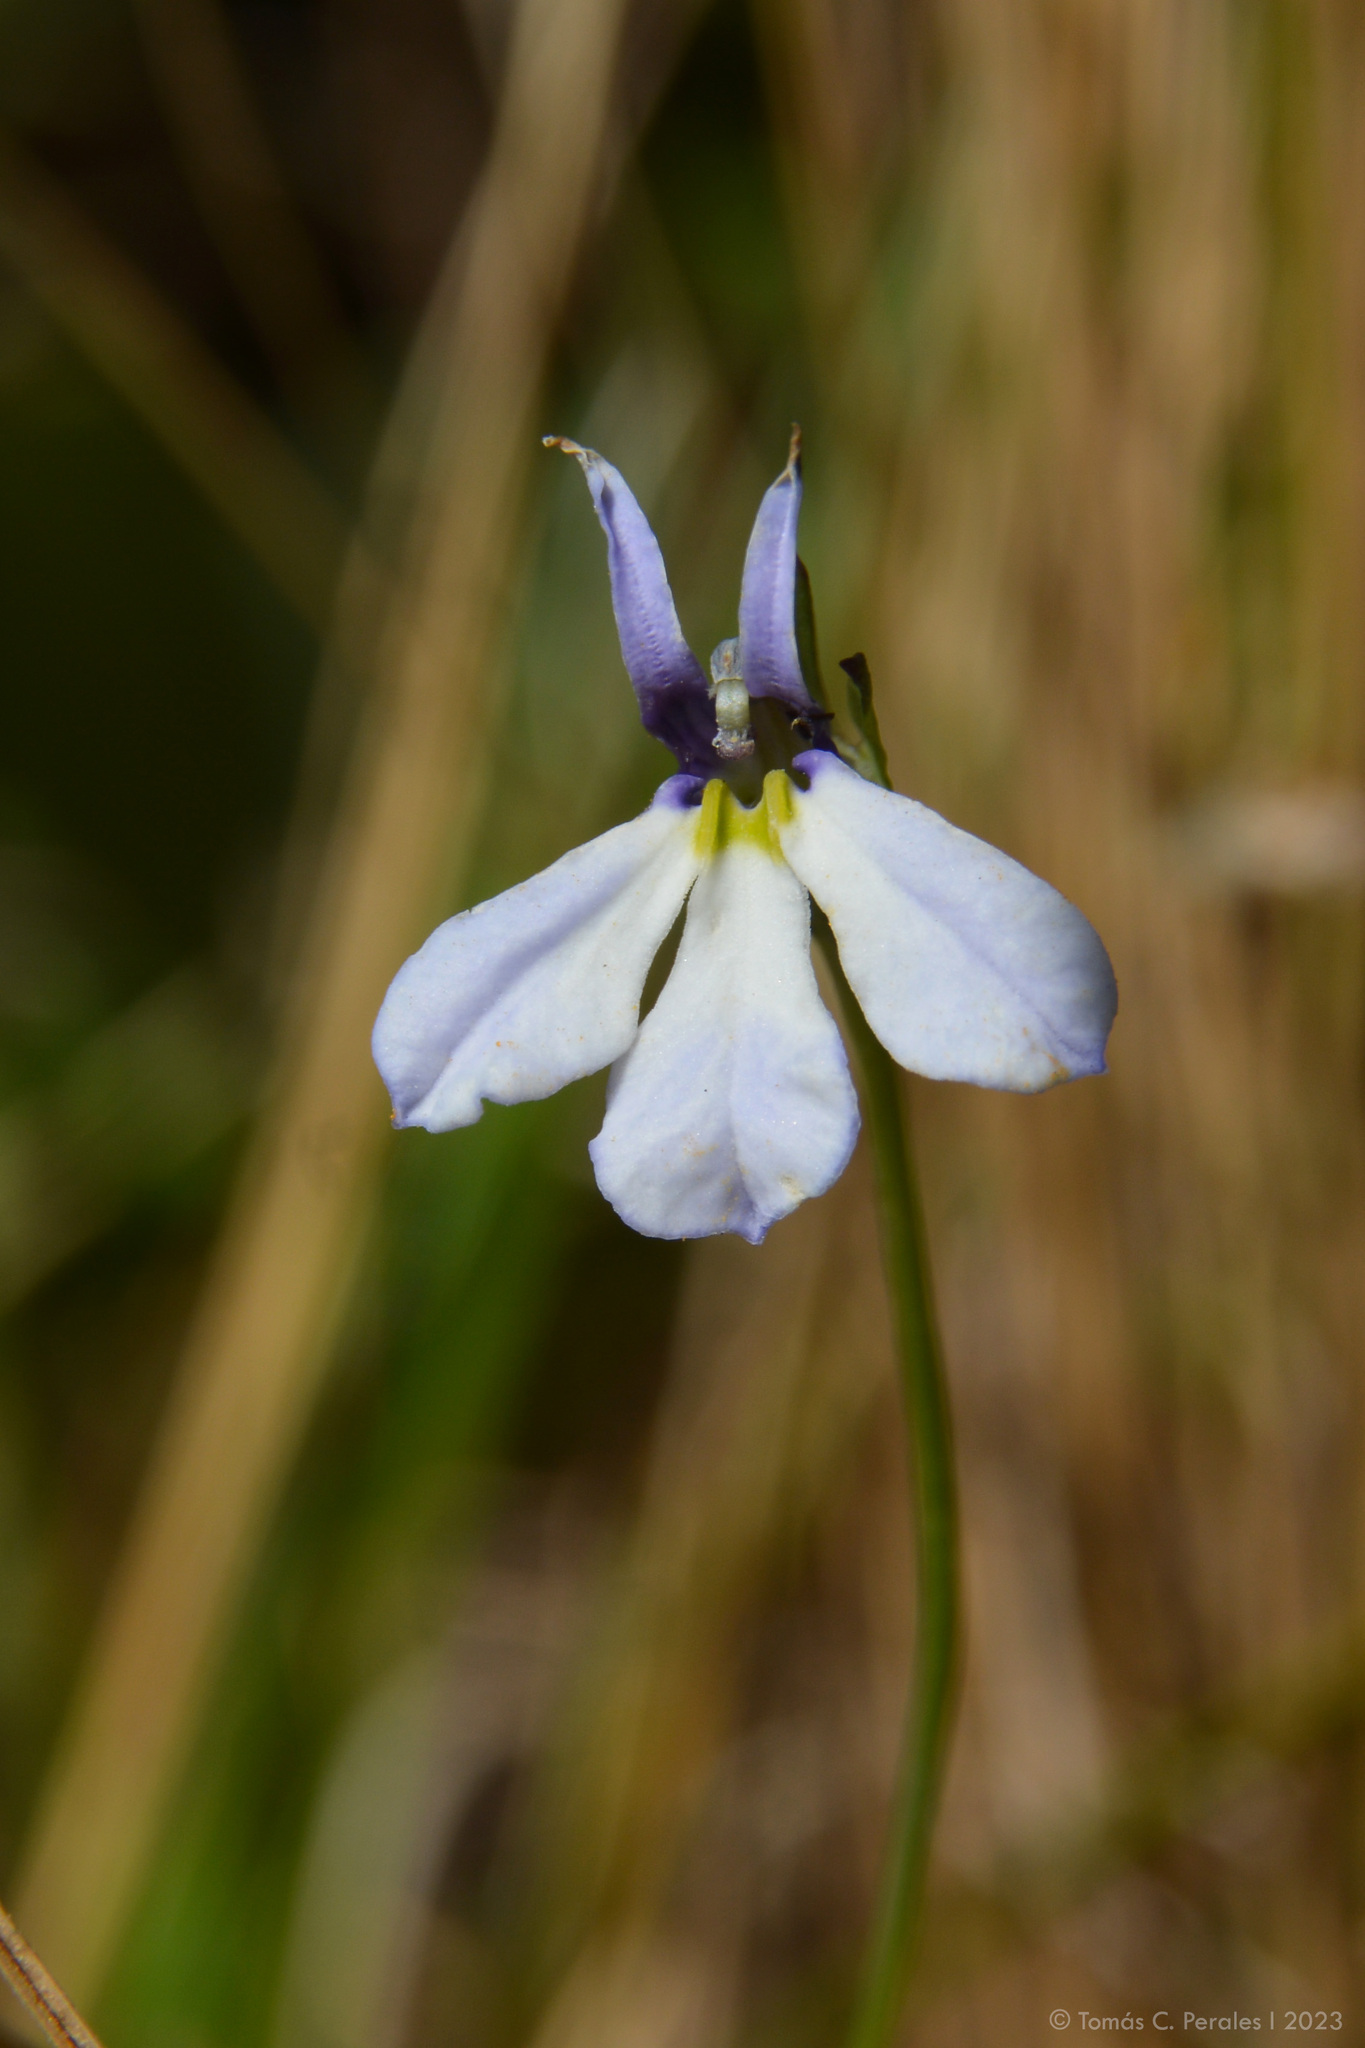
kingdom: Plantae
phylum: Tracheophyta
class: Magnoliopsida
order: Asterales
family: Campanulaceae
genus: Lobelia
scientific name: Lobelia nana
